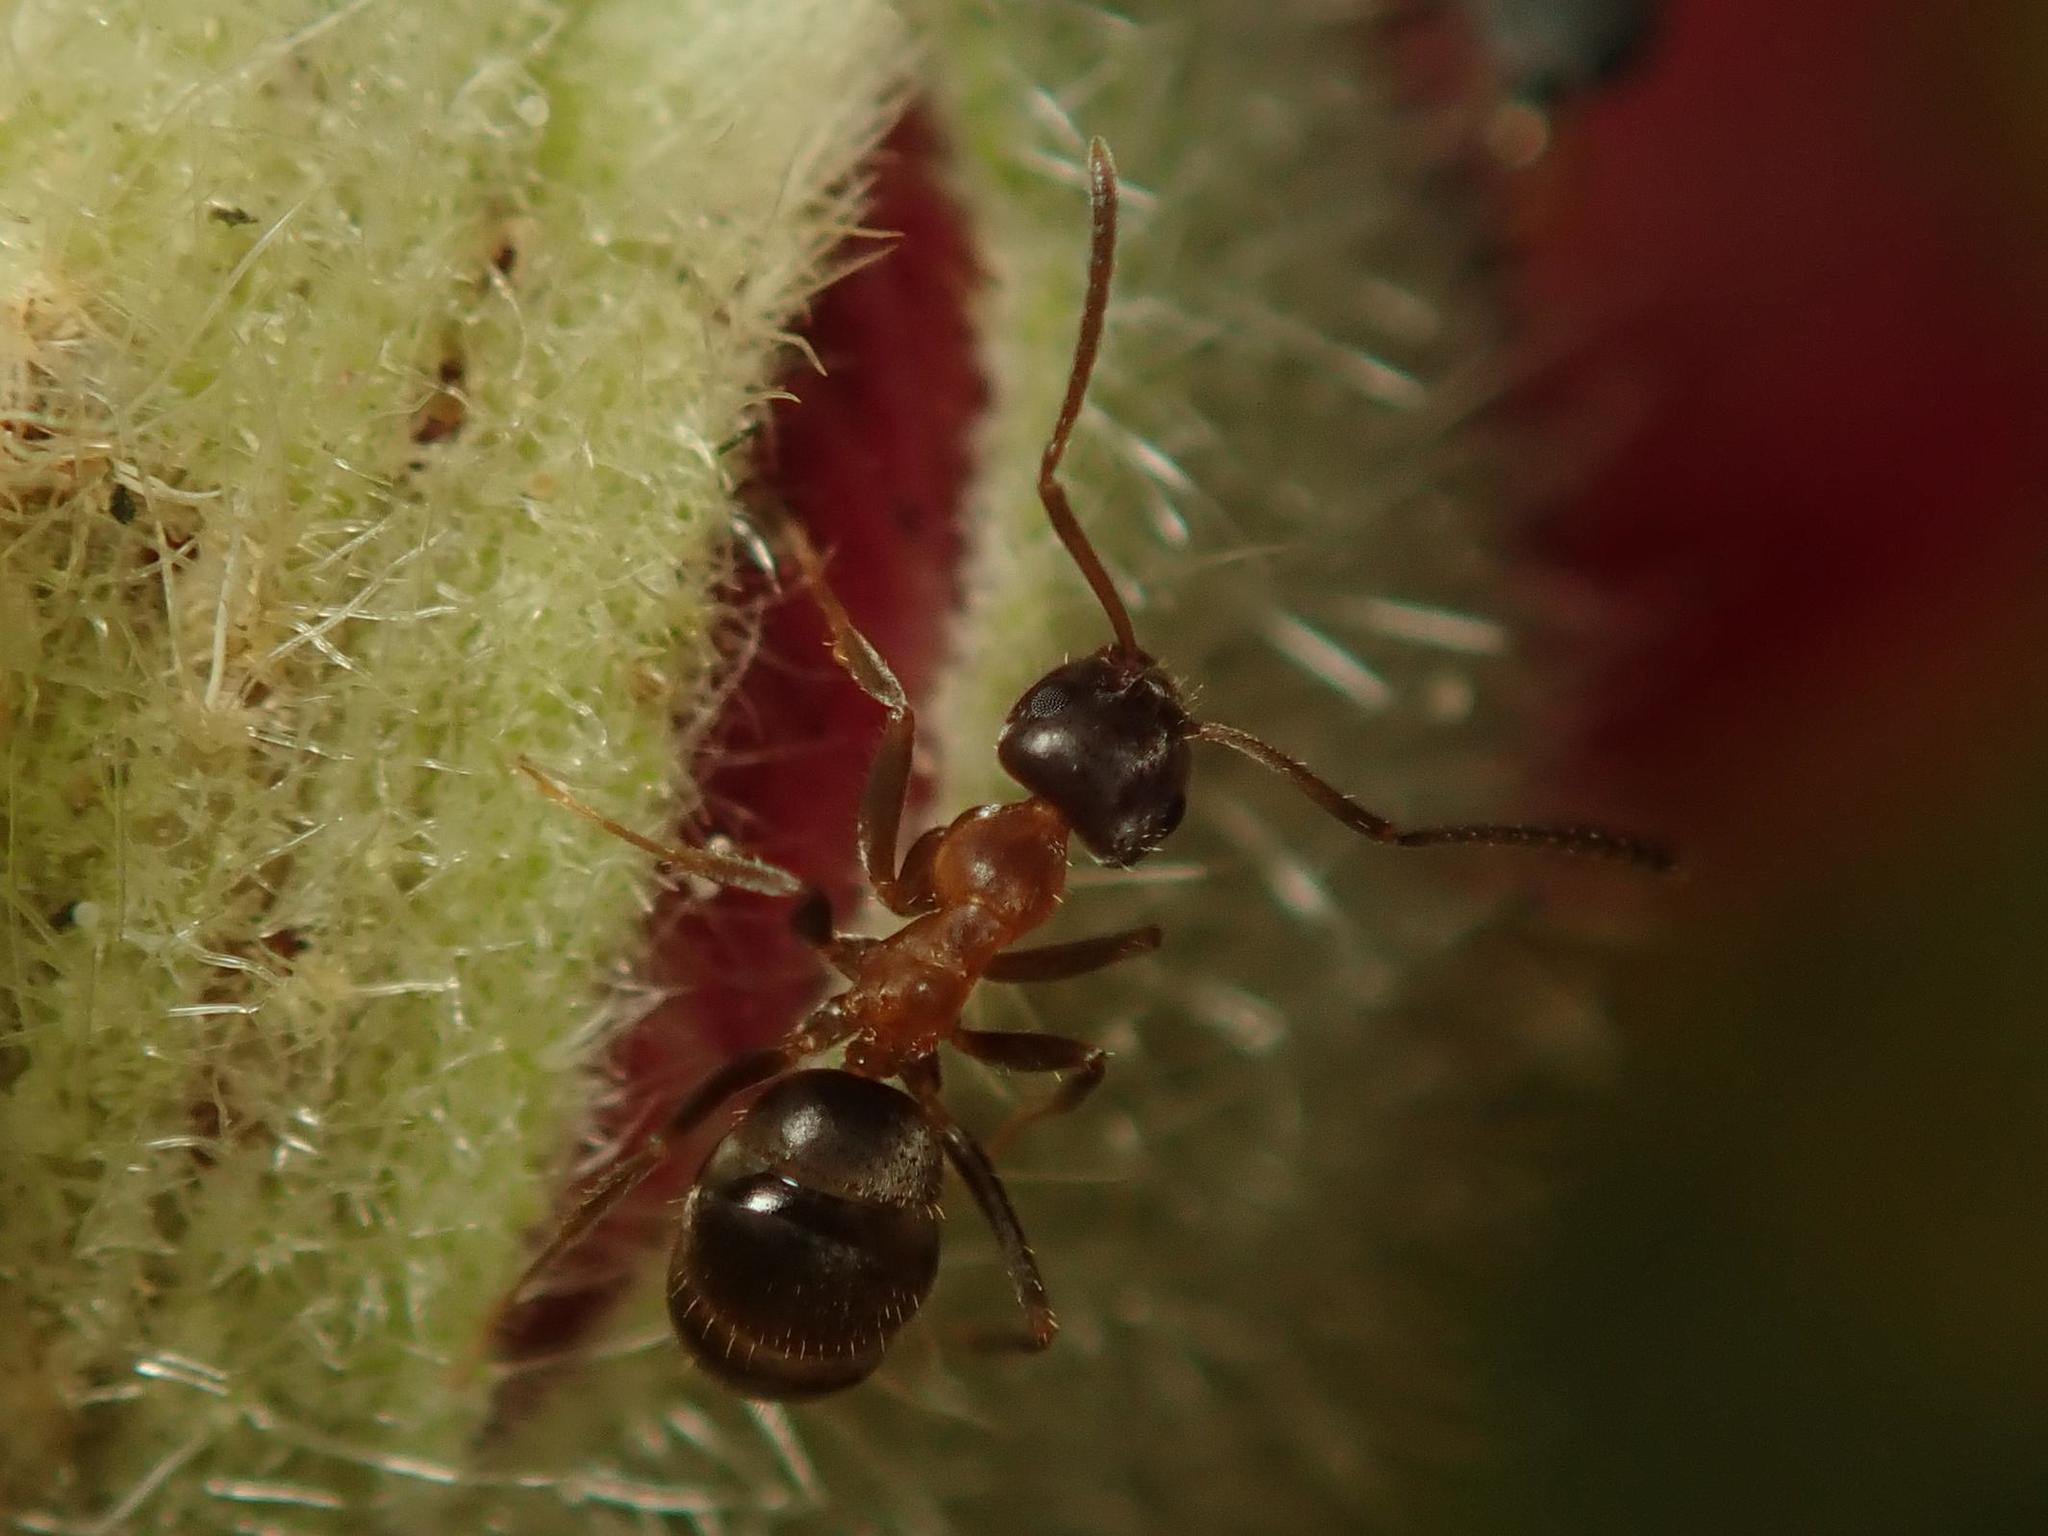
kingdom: Animalia
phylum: Arthropoda
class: Insecta
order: Hymenoptera
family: Formicidae
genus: Lasius
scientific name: Lasius emarginatus
